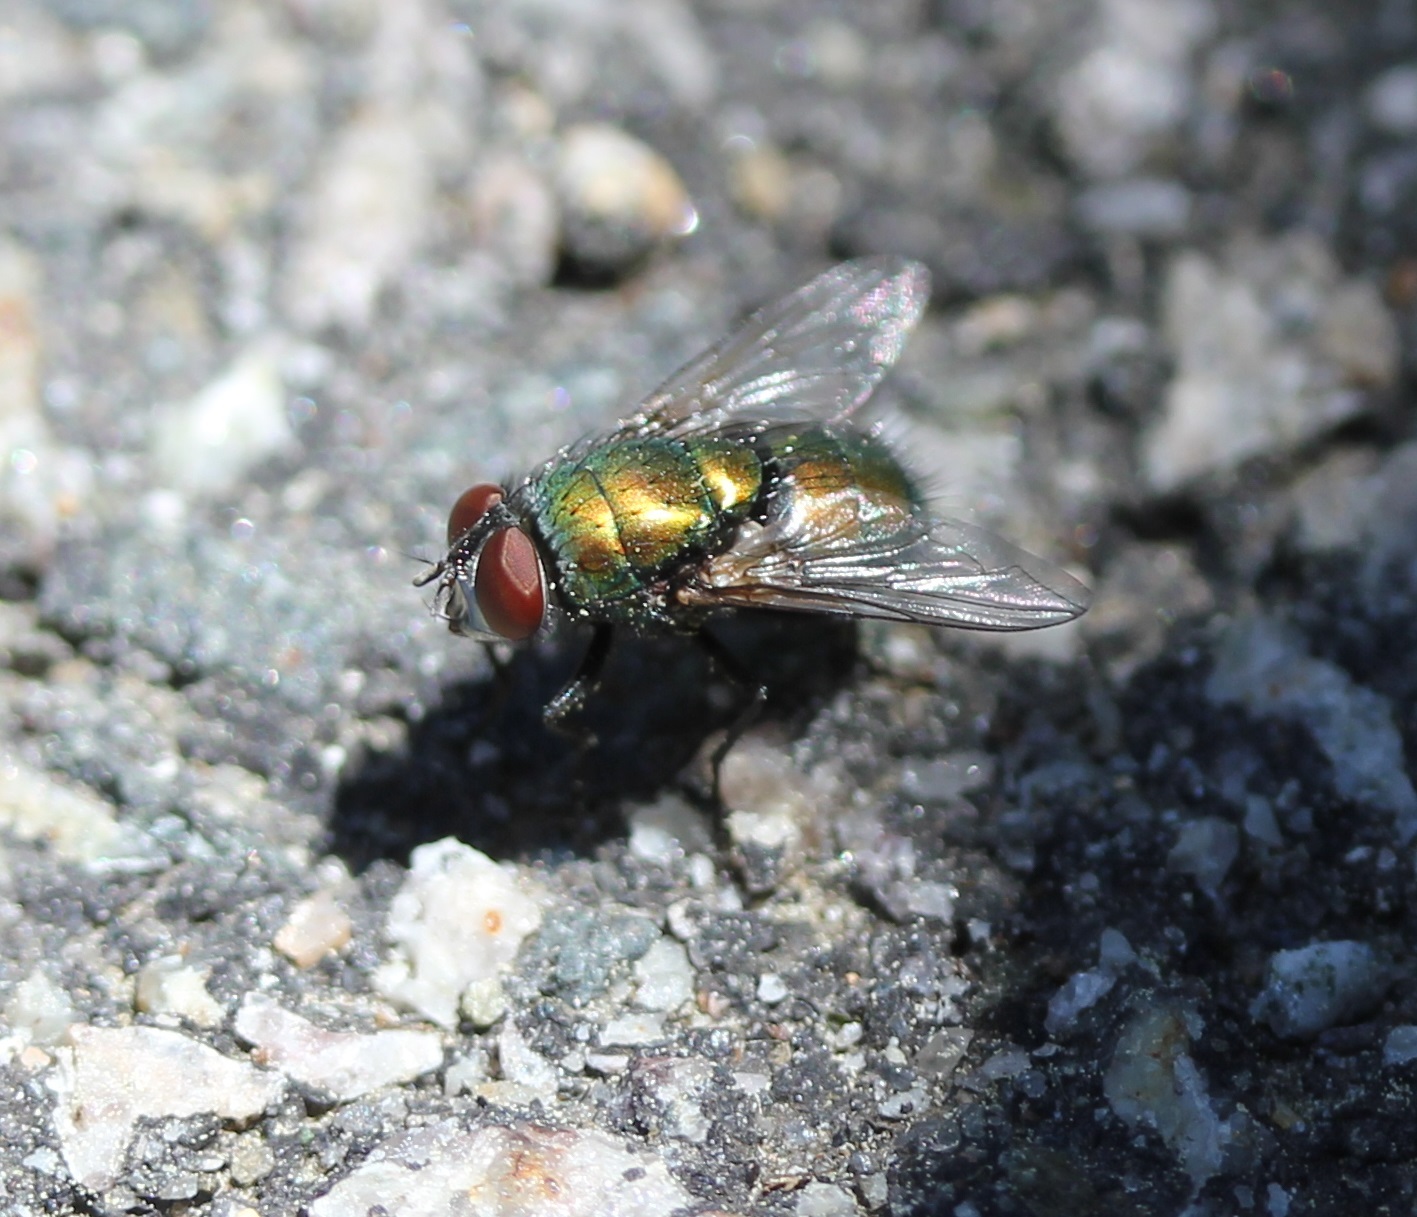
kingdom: Animalia
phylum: Arthropoda
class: Insecta
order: Diptera
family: Calliphoridae
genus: Lucilia
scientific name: Lucilia sericata
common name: Blow fly
